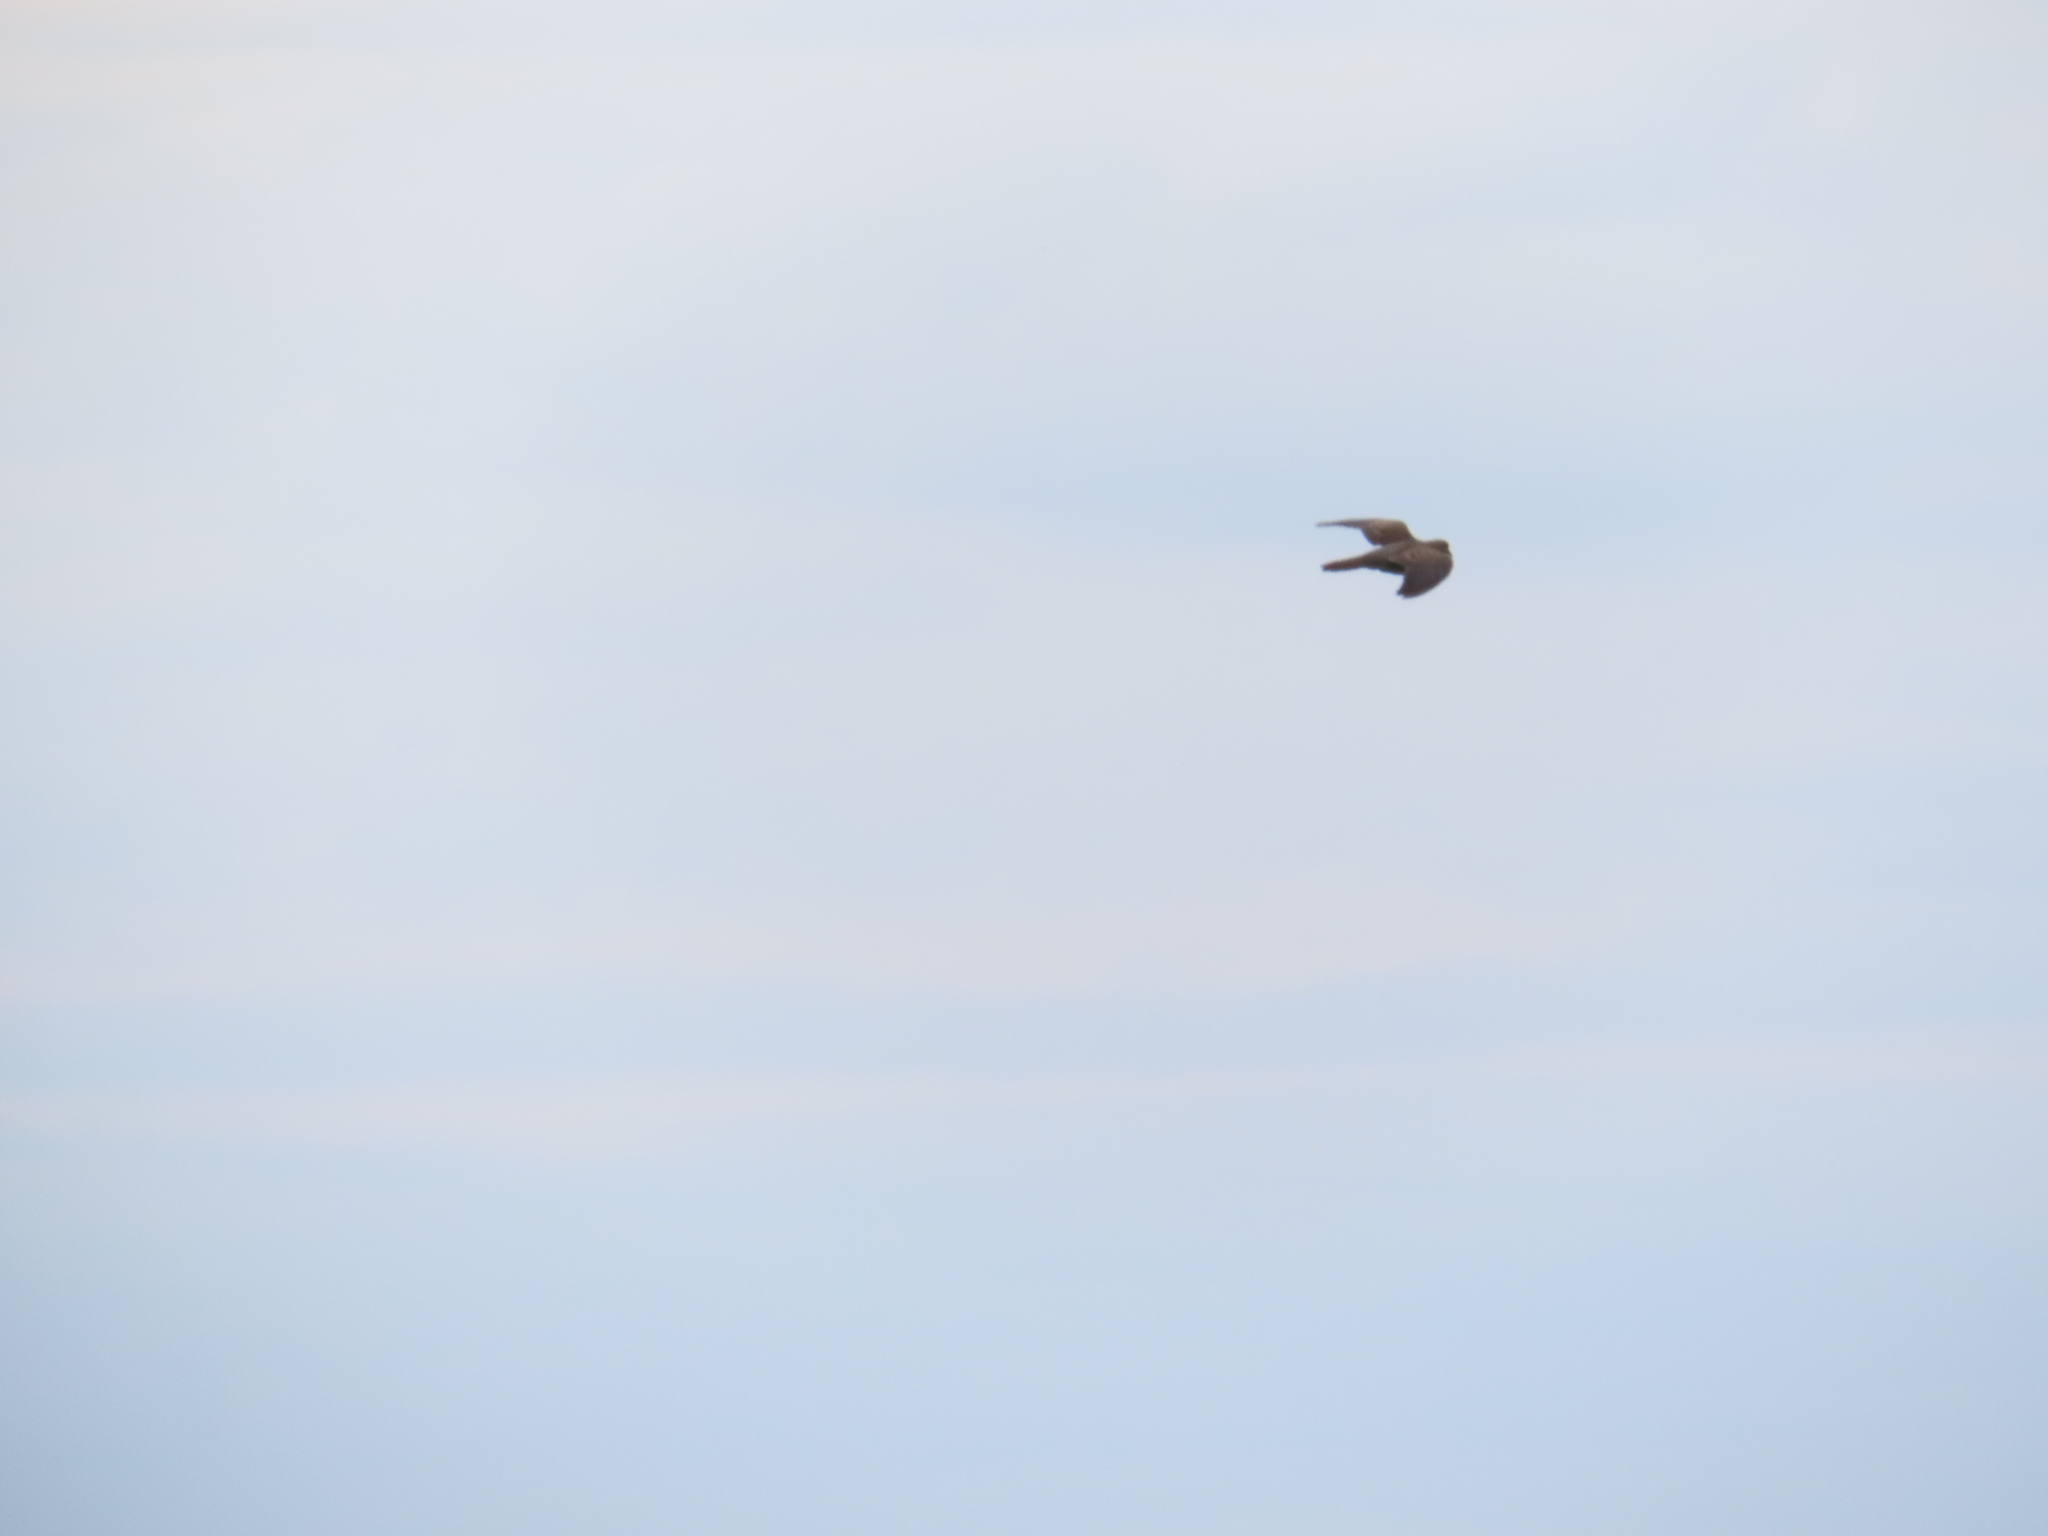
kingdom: Animalia
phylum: Chordata
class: Aves
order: Columbiformes
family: Columbidae
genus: Zenaida
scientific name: Zenaida macroura
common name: Mourning dove
